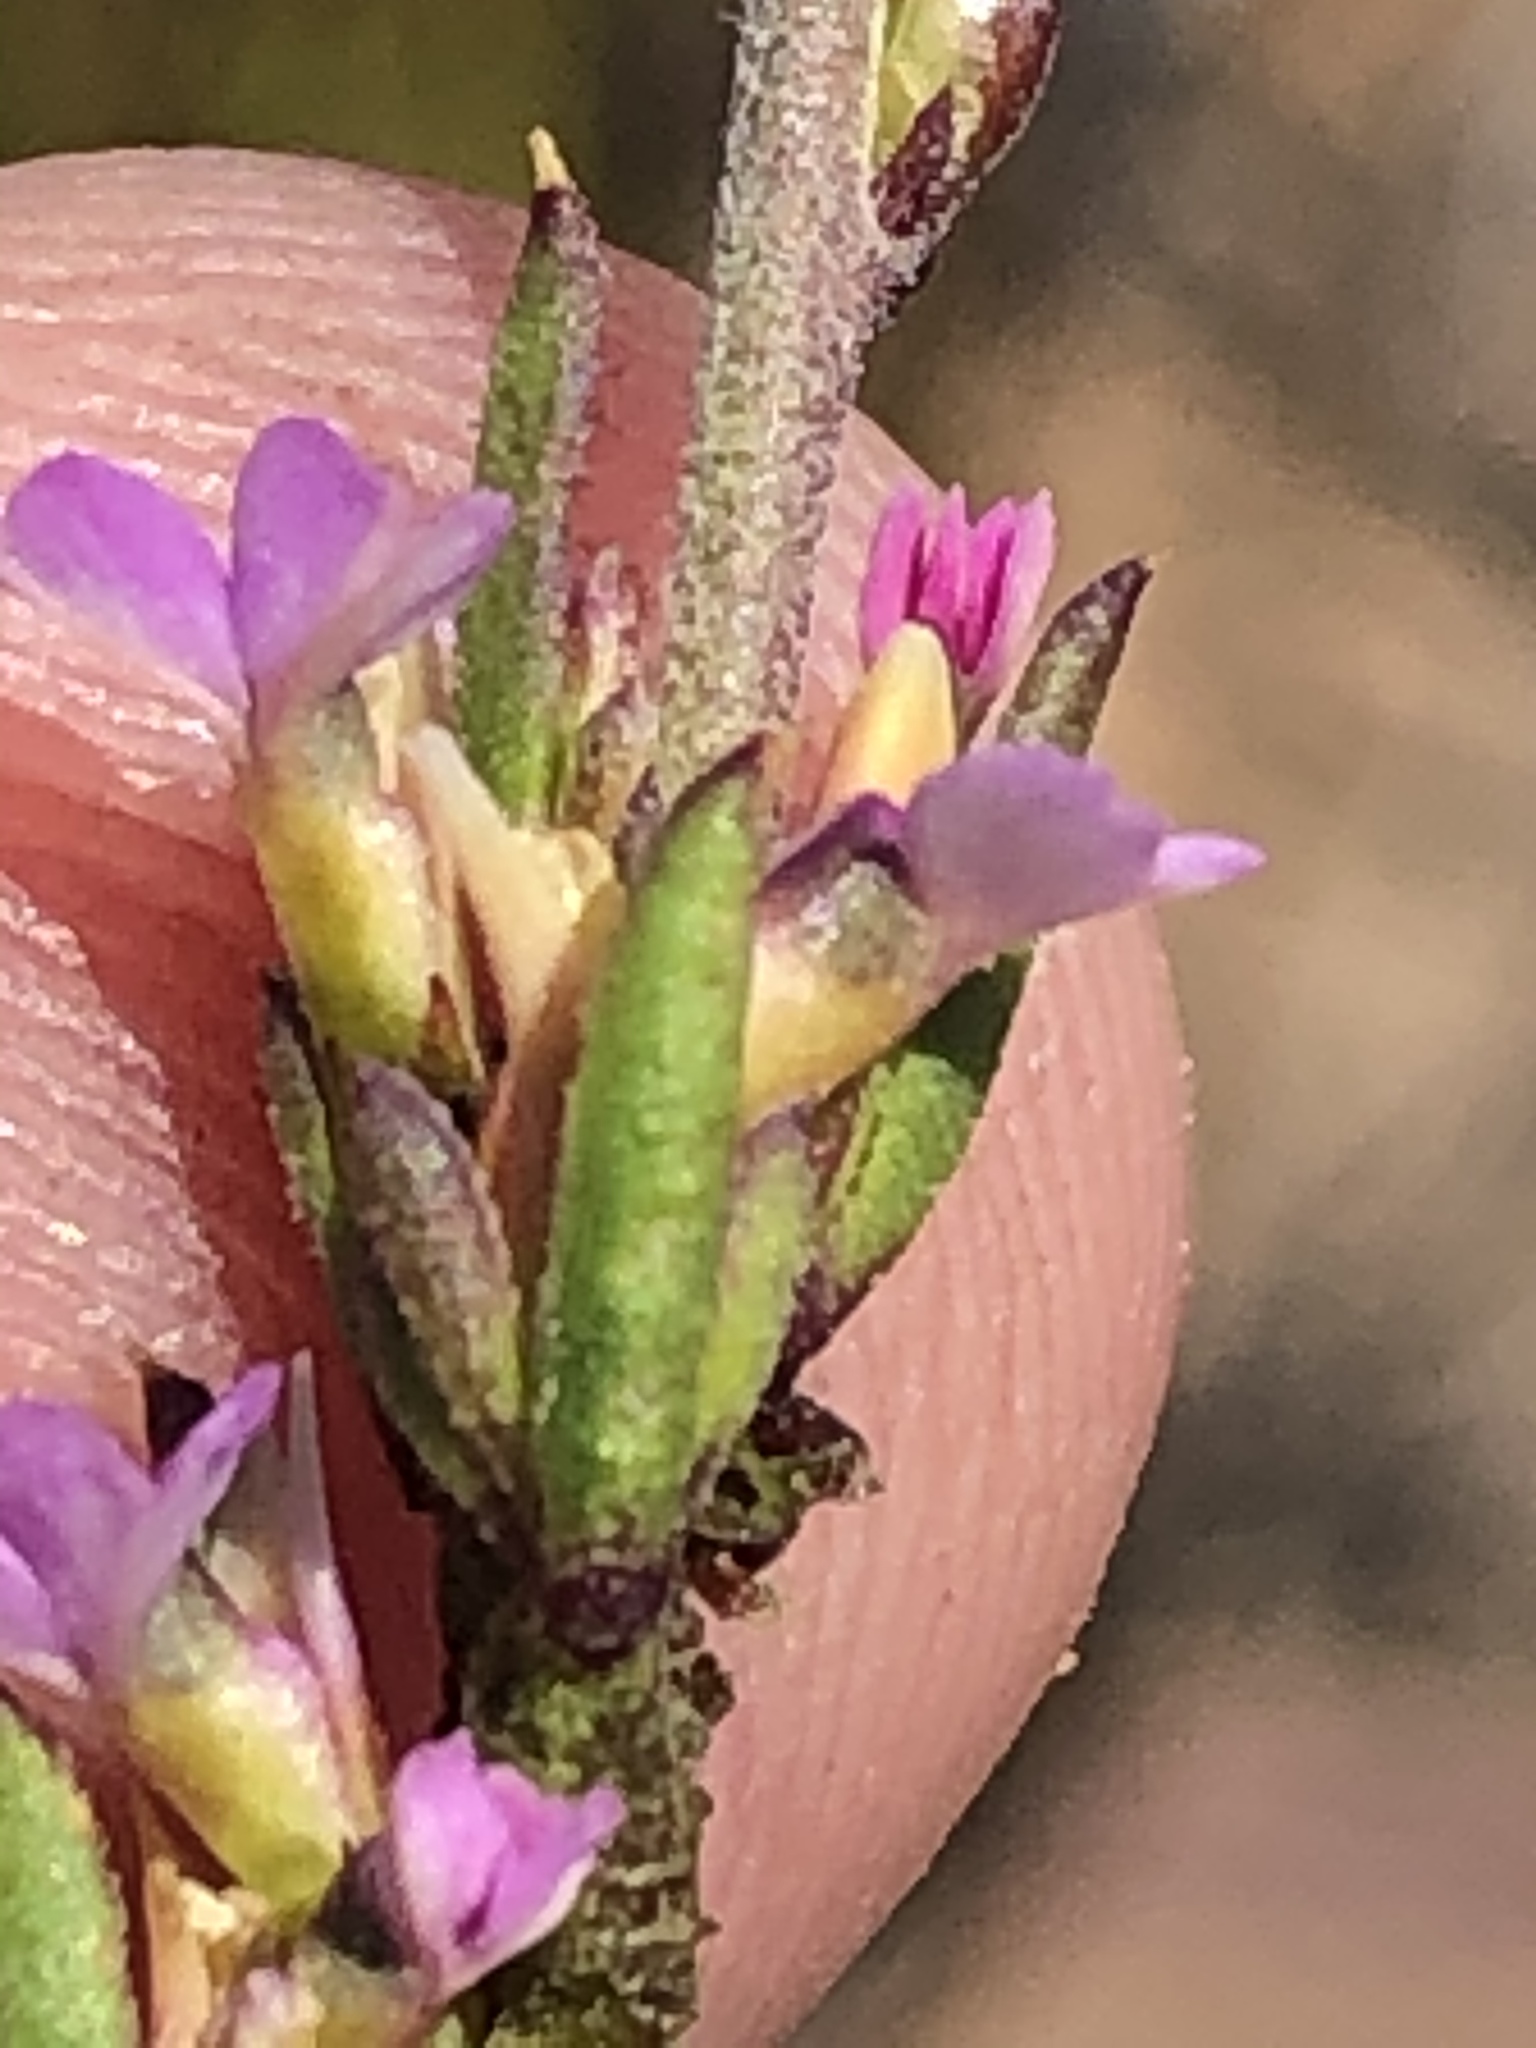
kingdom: Plantae
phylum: Tracheophyta
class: Magnoliopsida
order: Fabales
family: Polygalaceae
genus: Muraltia
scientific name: Muraltia dispersa
